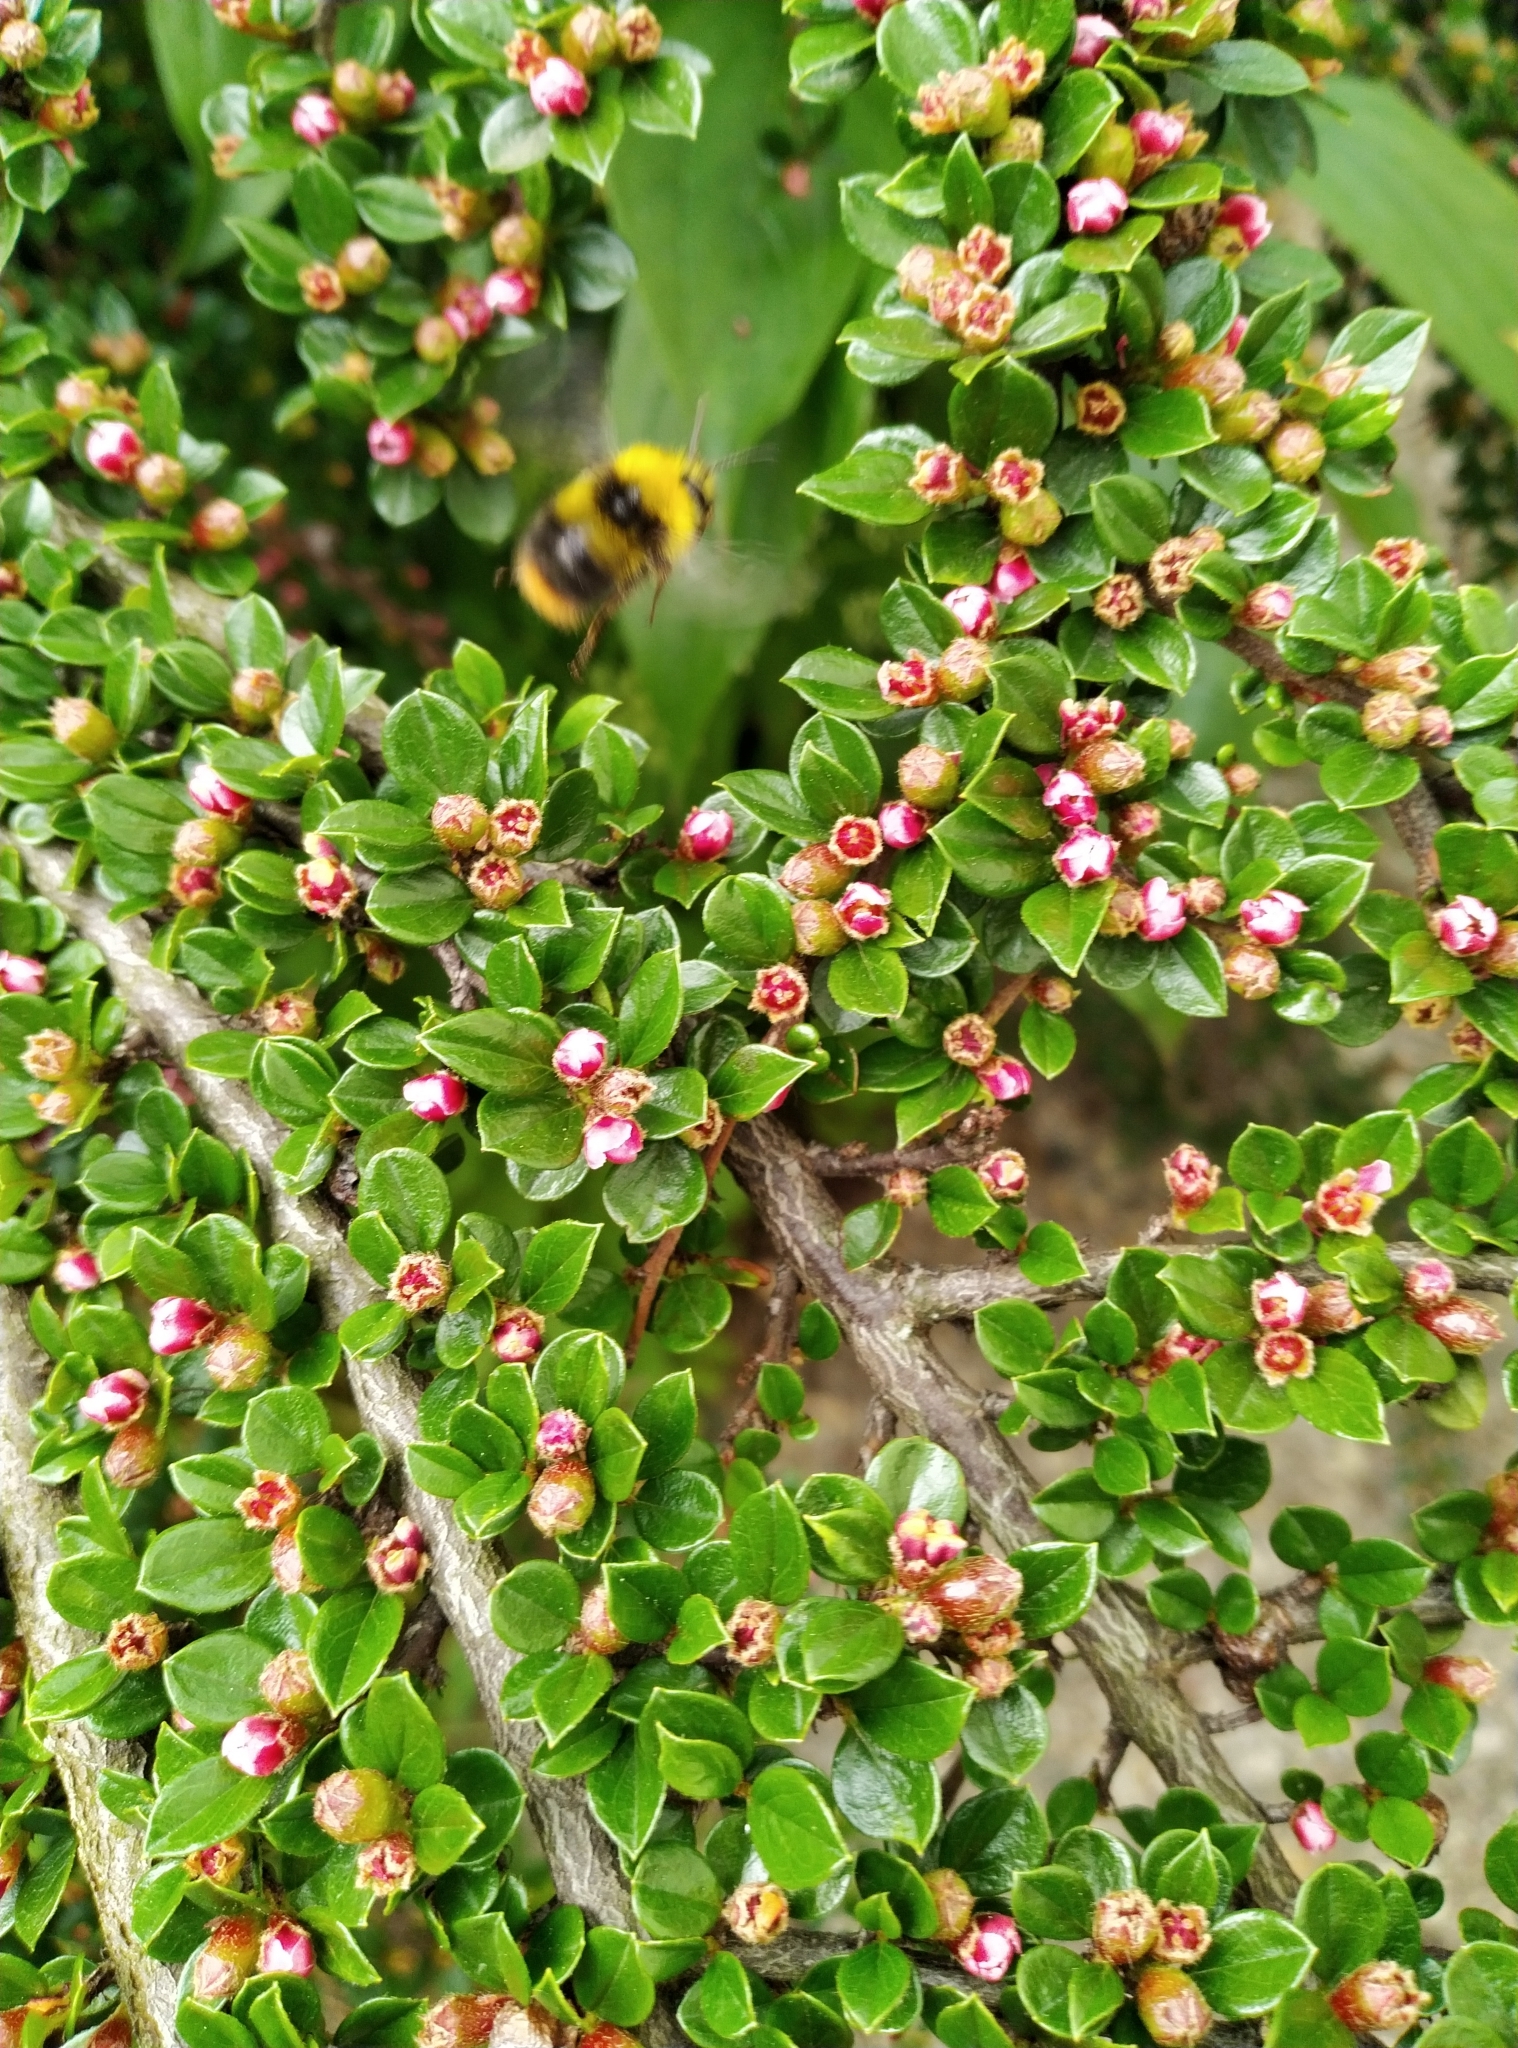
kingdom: Animalia
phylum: Arthropoda
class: Insecta
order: Hymenoptera
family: Apidae
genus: Bombus
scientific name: Bombus pratorum
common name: Early humble-bee
